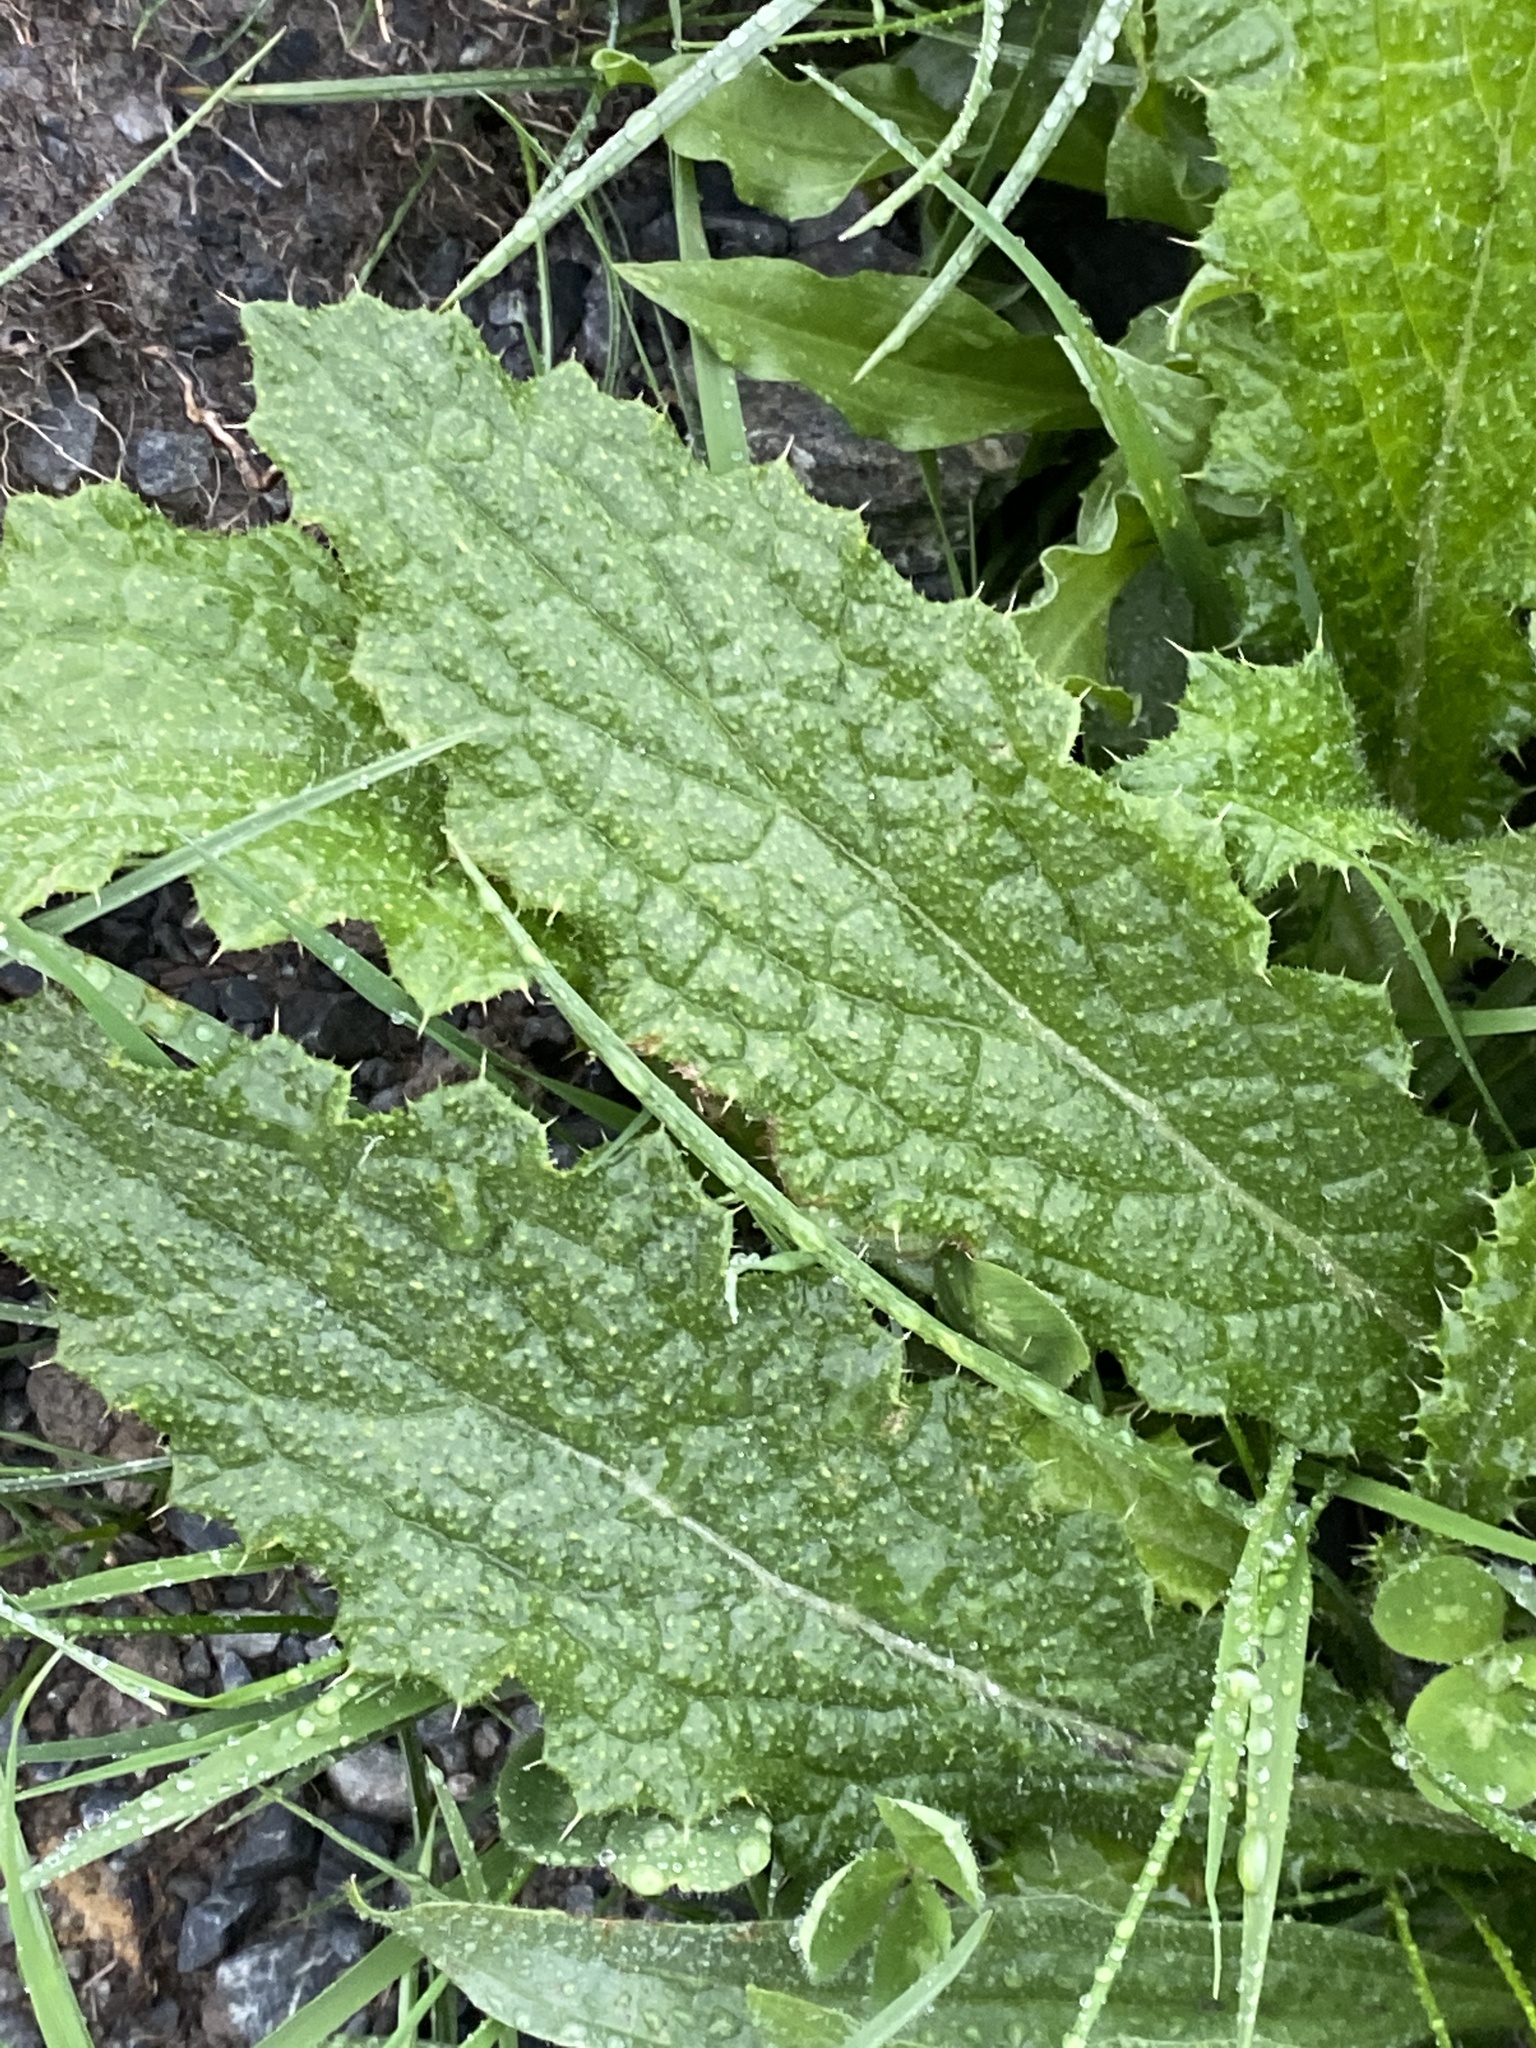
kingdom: Plantae
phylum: Tracheophyta
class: Magnoliopsida
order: Asterales
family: Asteraceae
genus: Cirsium
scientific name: Cirsium vulgare
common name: Bull thistle
